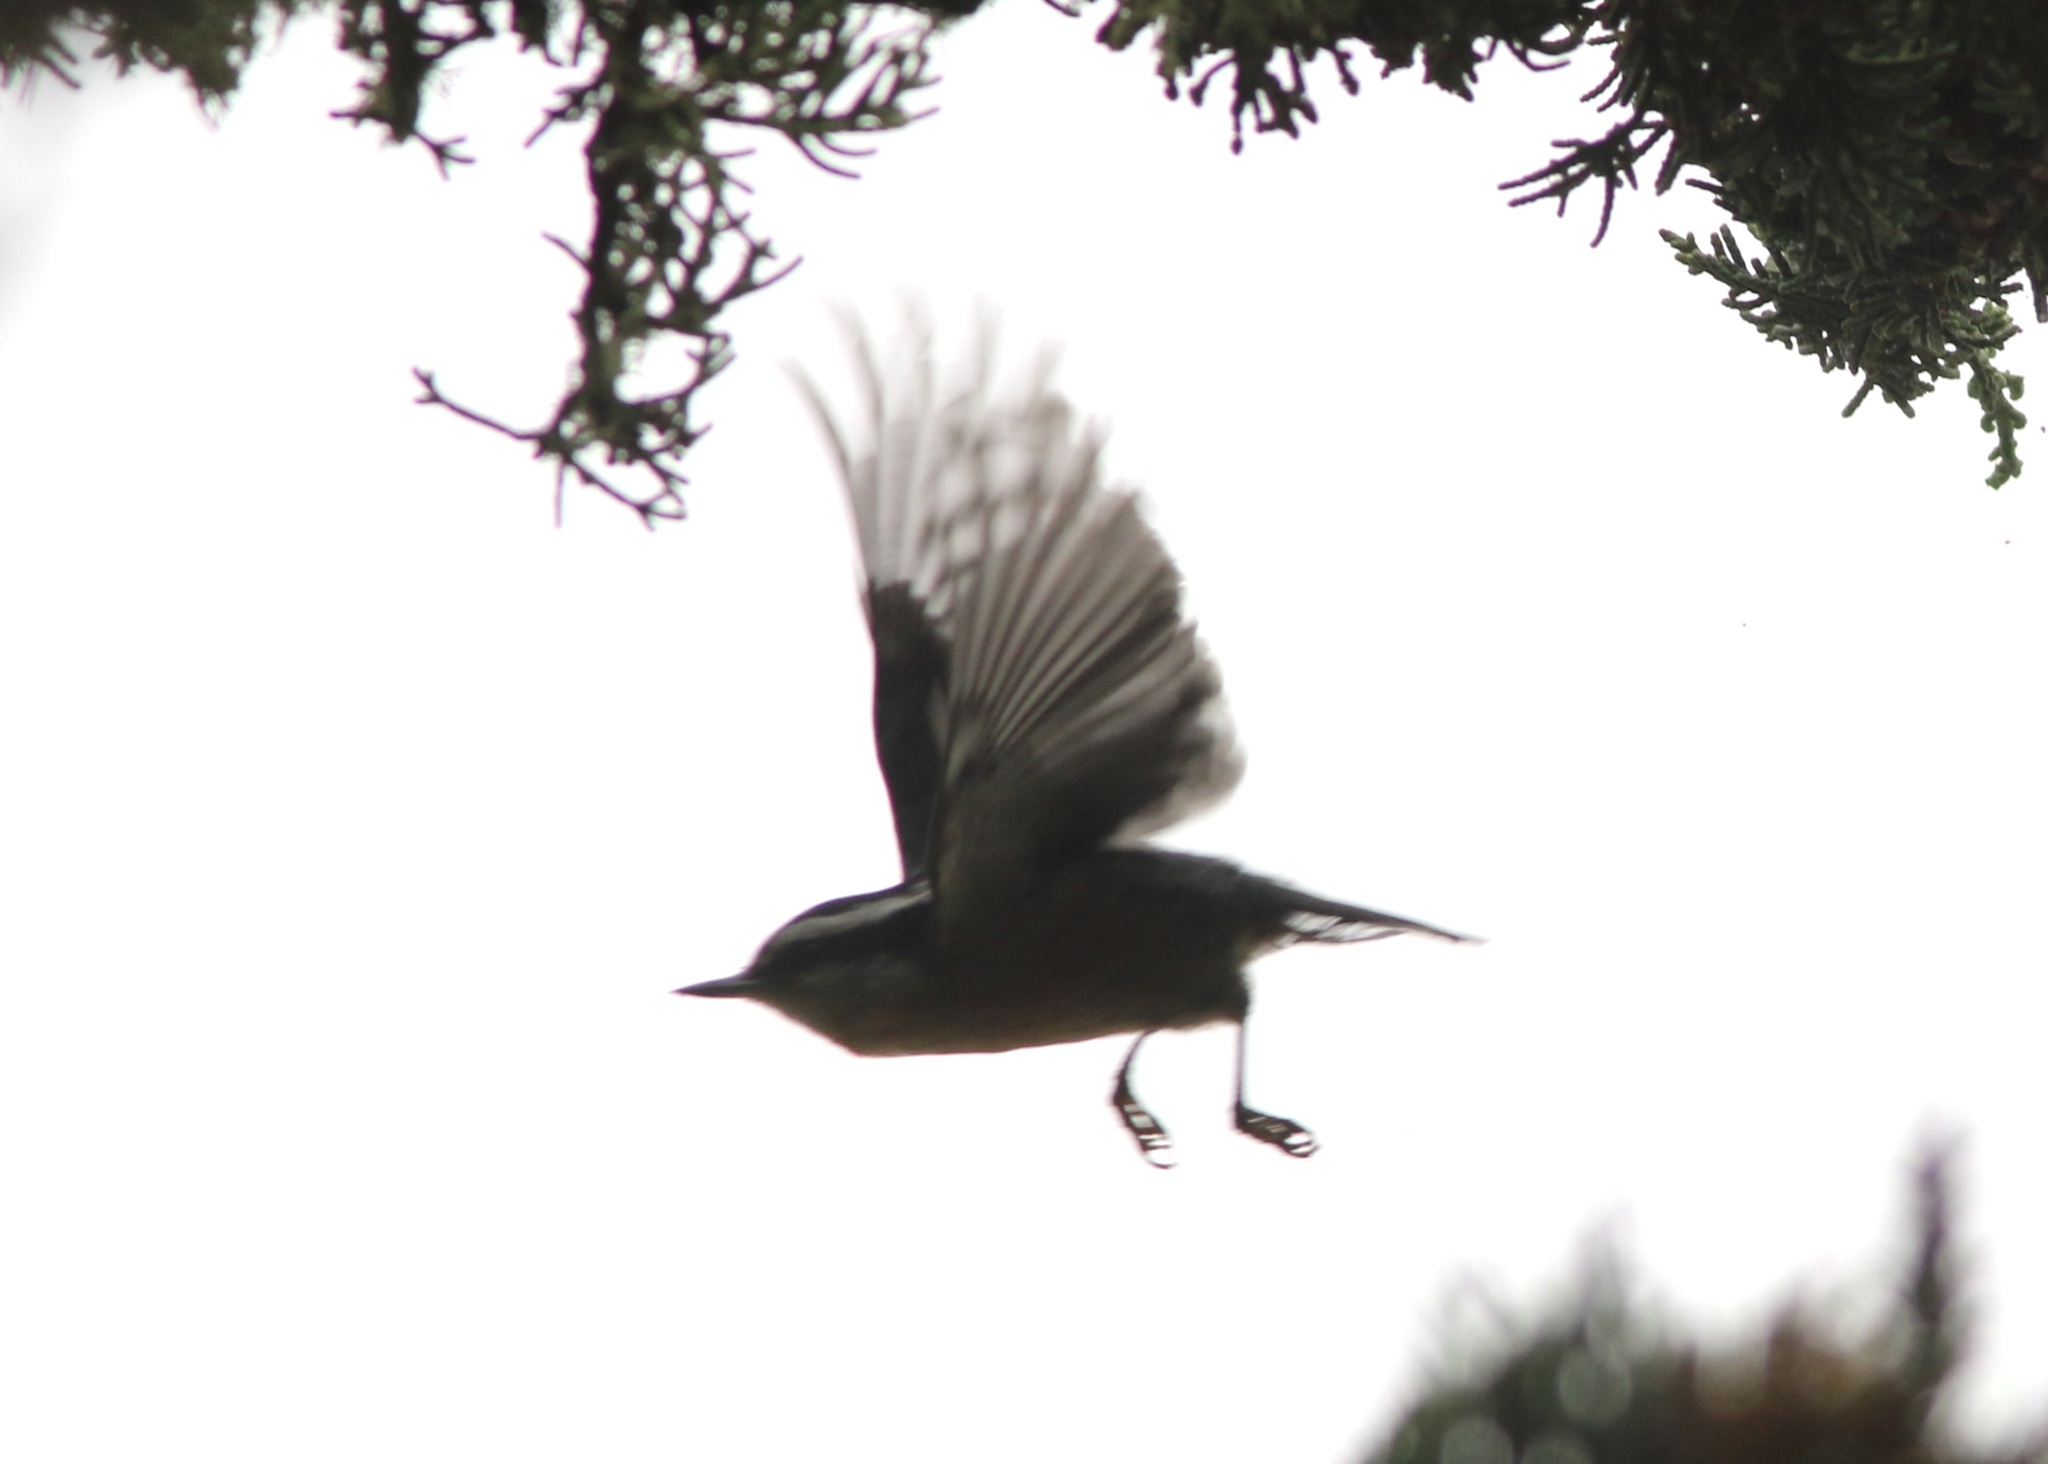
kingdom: Animalia
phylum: Chordata
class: Aves
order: Passeriformes
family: Sittidae
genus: Sitta
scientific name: Sitta canadensis
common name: Red-breasted nuthatch
